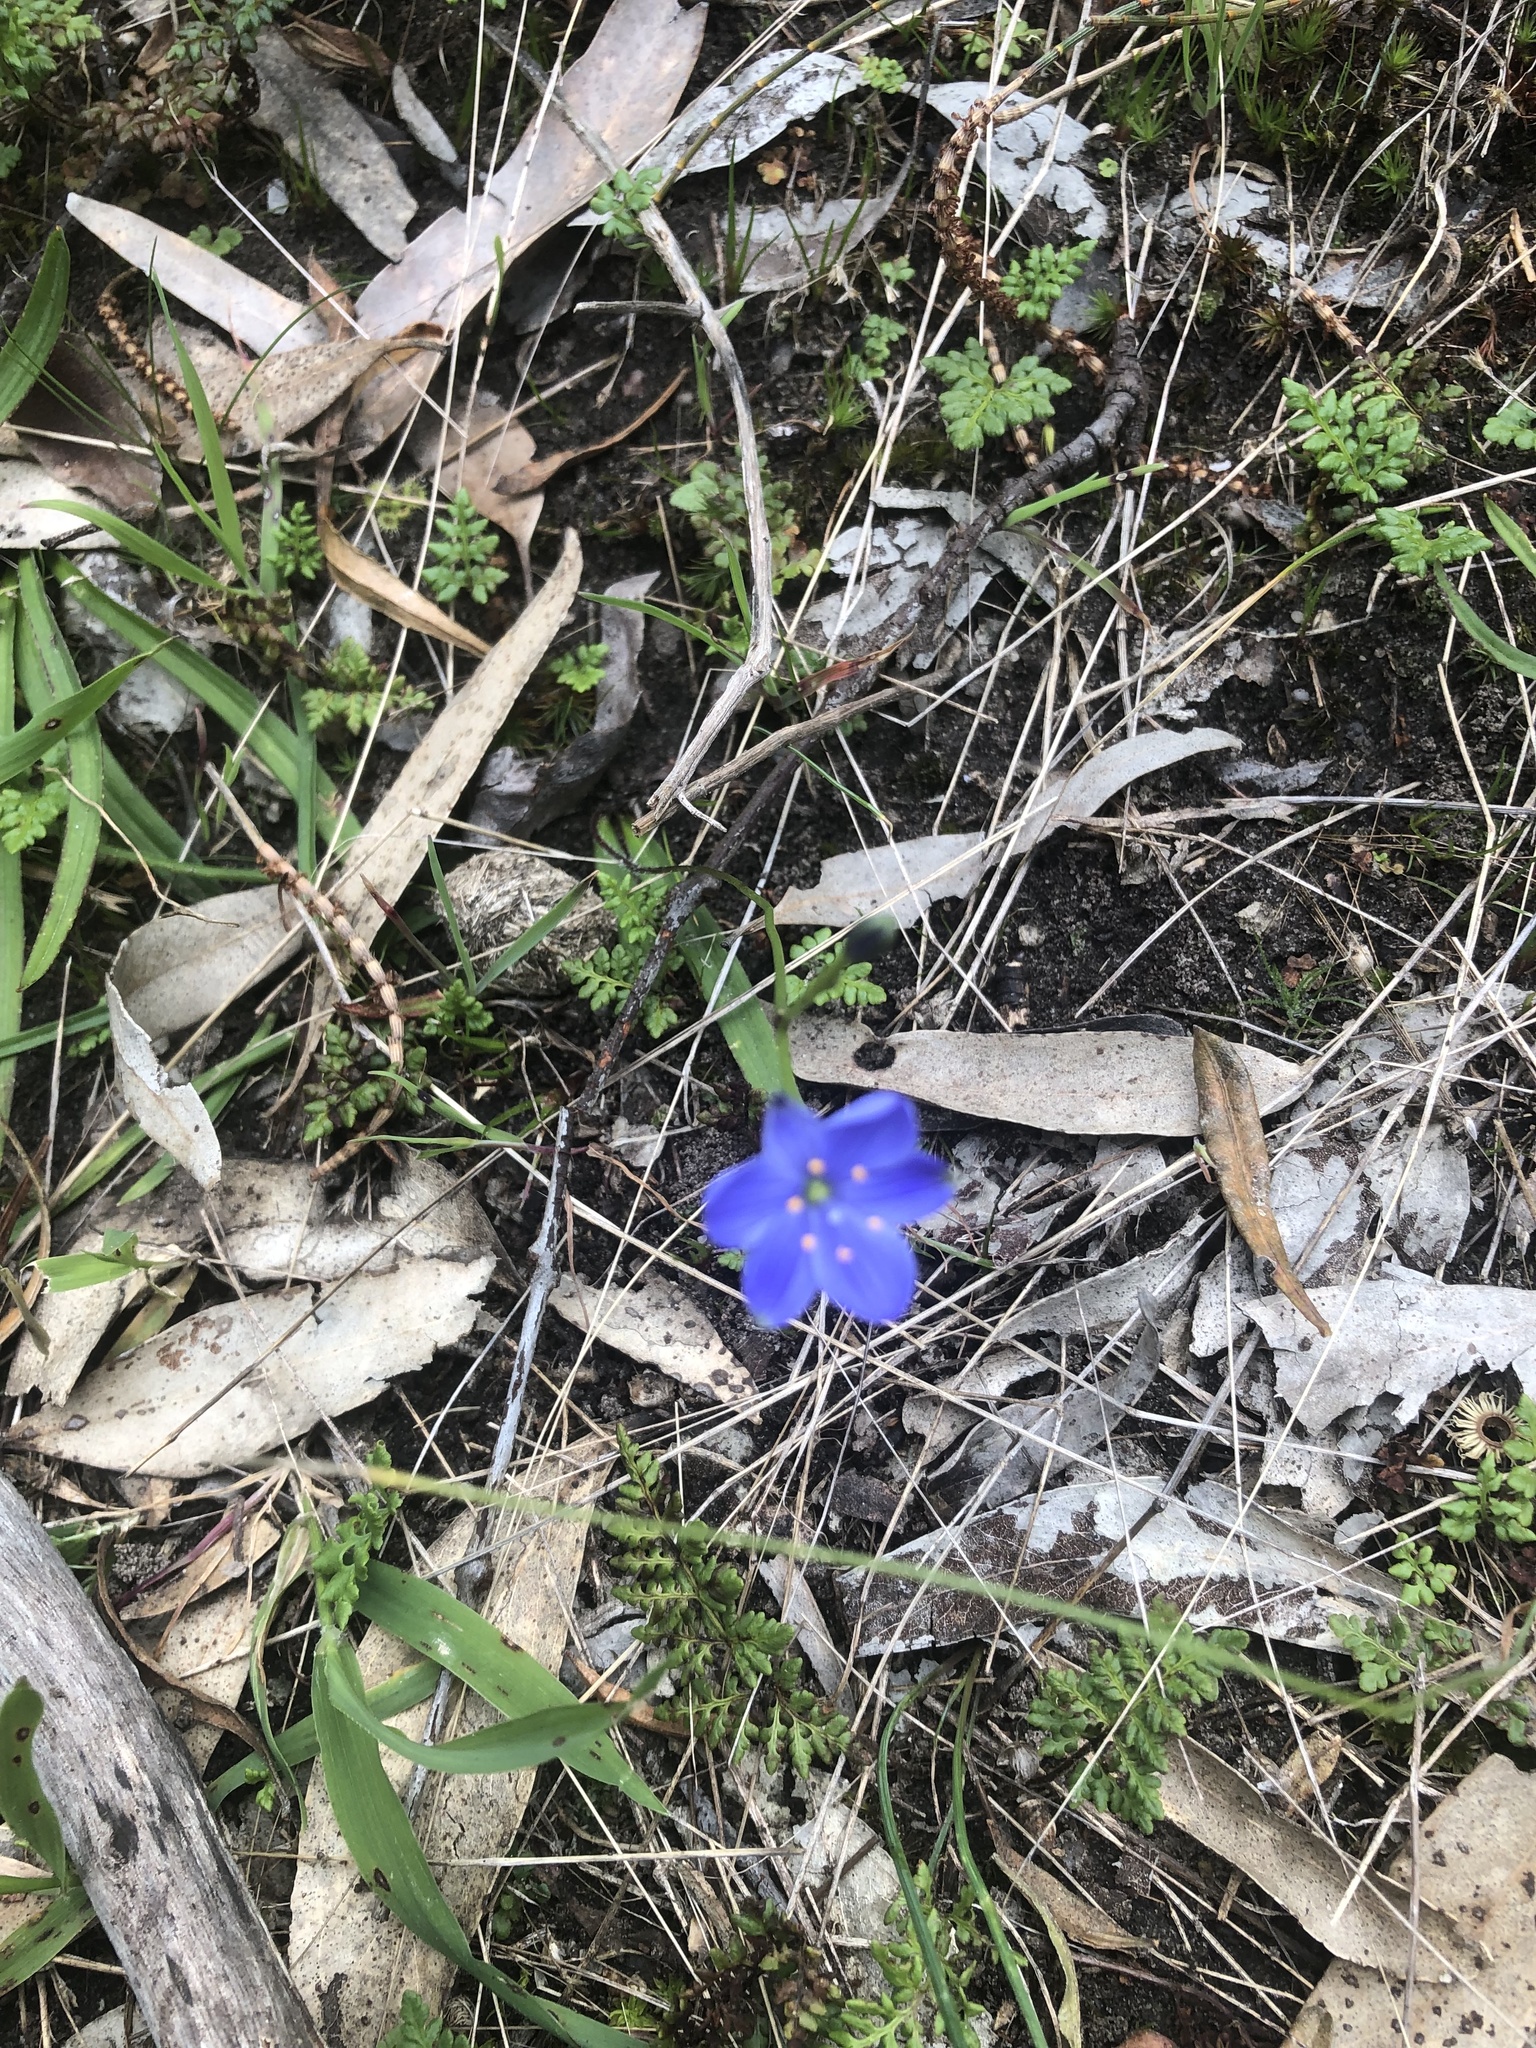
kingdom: Plantae
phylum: Tracheophyta
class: Liliopsida
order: Asparagales
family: Asphodelaceae
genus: Chamaescilla
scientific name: Chamaescilla corymbosa
